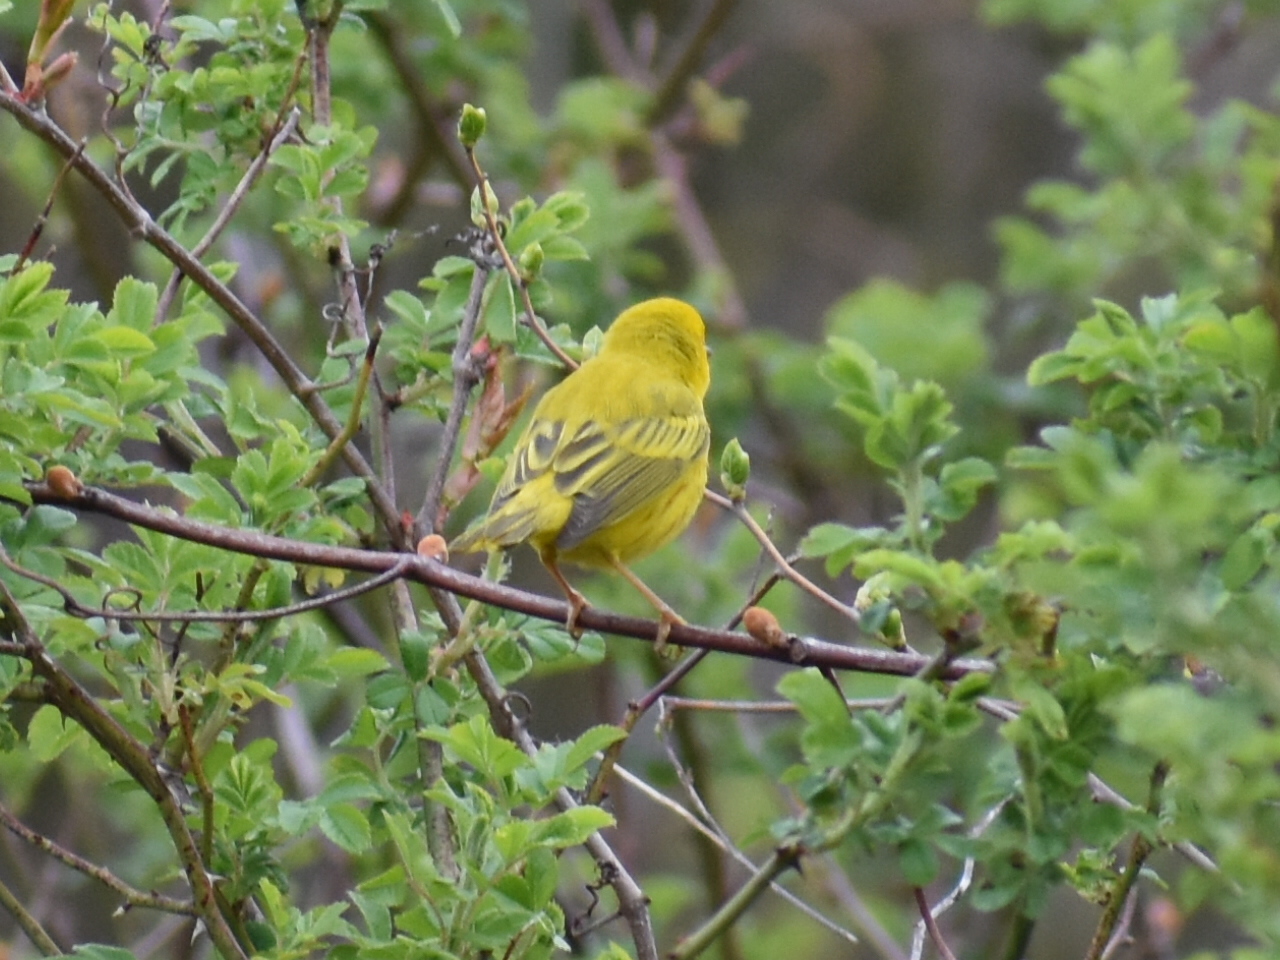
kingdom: Animalia
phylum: Chordata
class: Aves
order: Passeriformes
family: Parulidae
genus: Setophaga
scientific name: Setophaga petechia
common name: Yellow warbler
